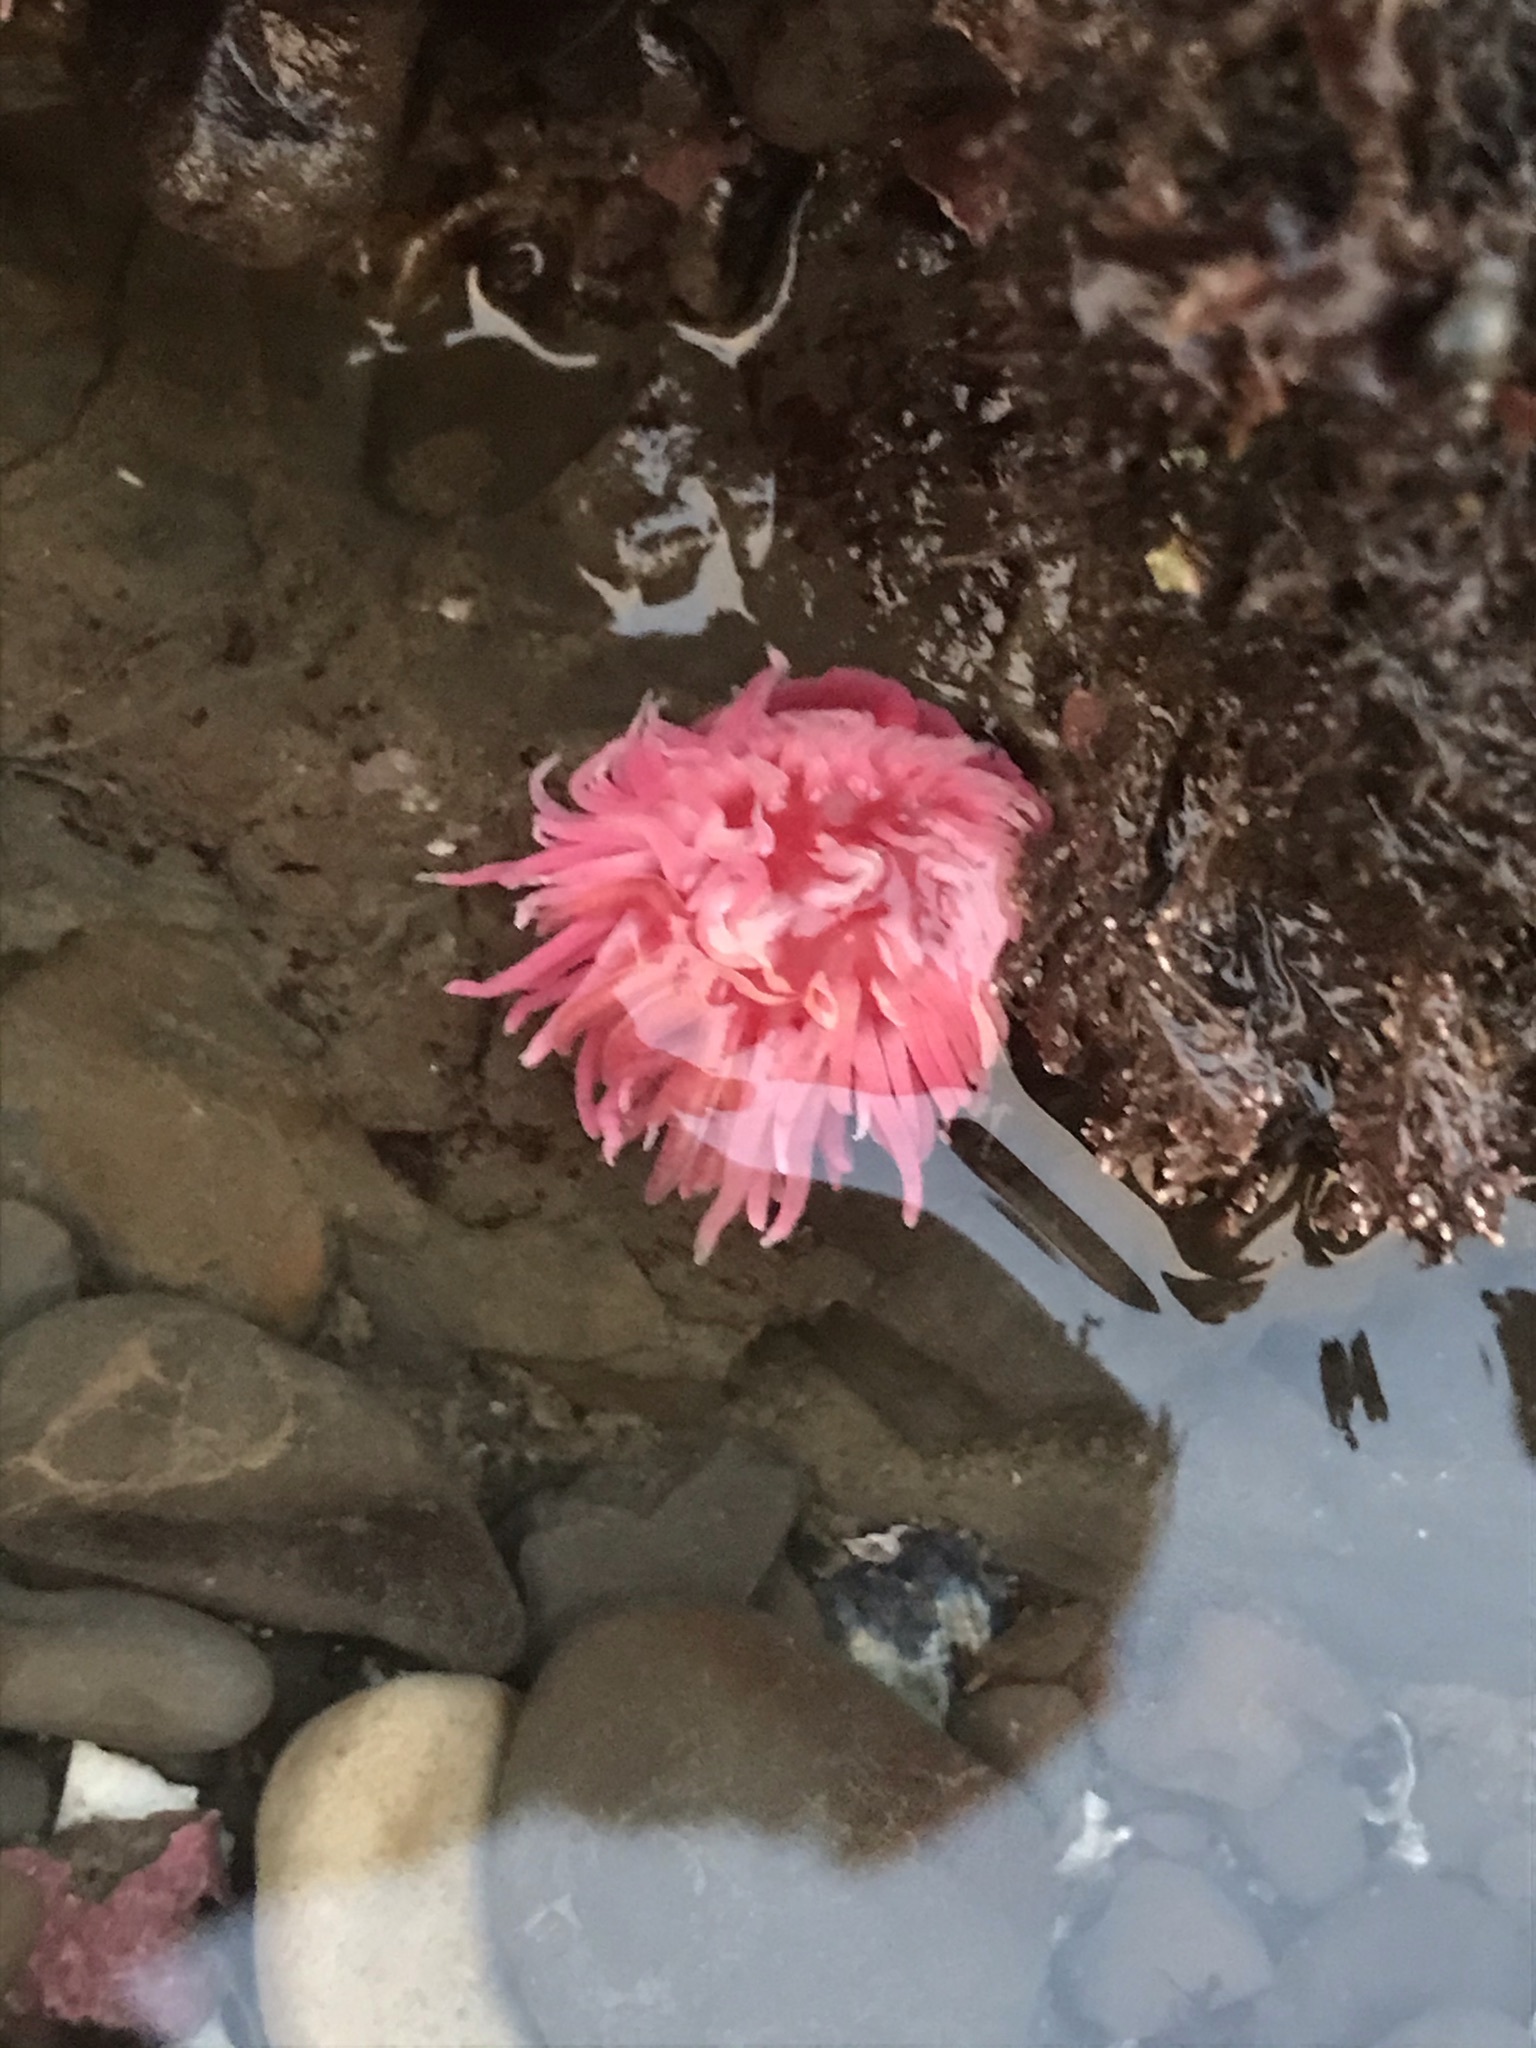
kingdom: Animalia
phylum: Mollusca
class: Gastropoda
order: Nudibranchia
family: Goniodorididae
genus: Okenia
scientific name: Okenia
